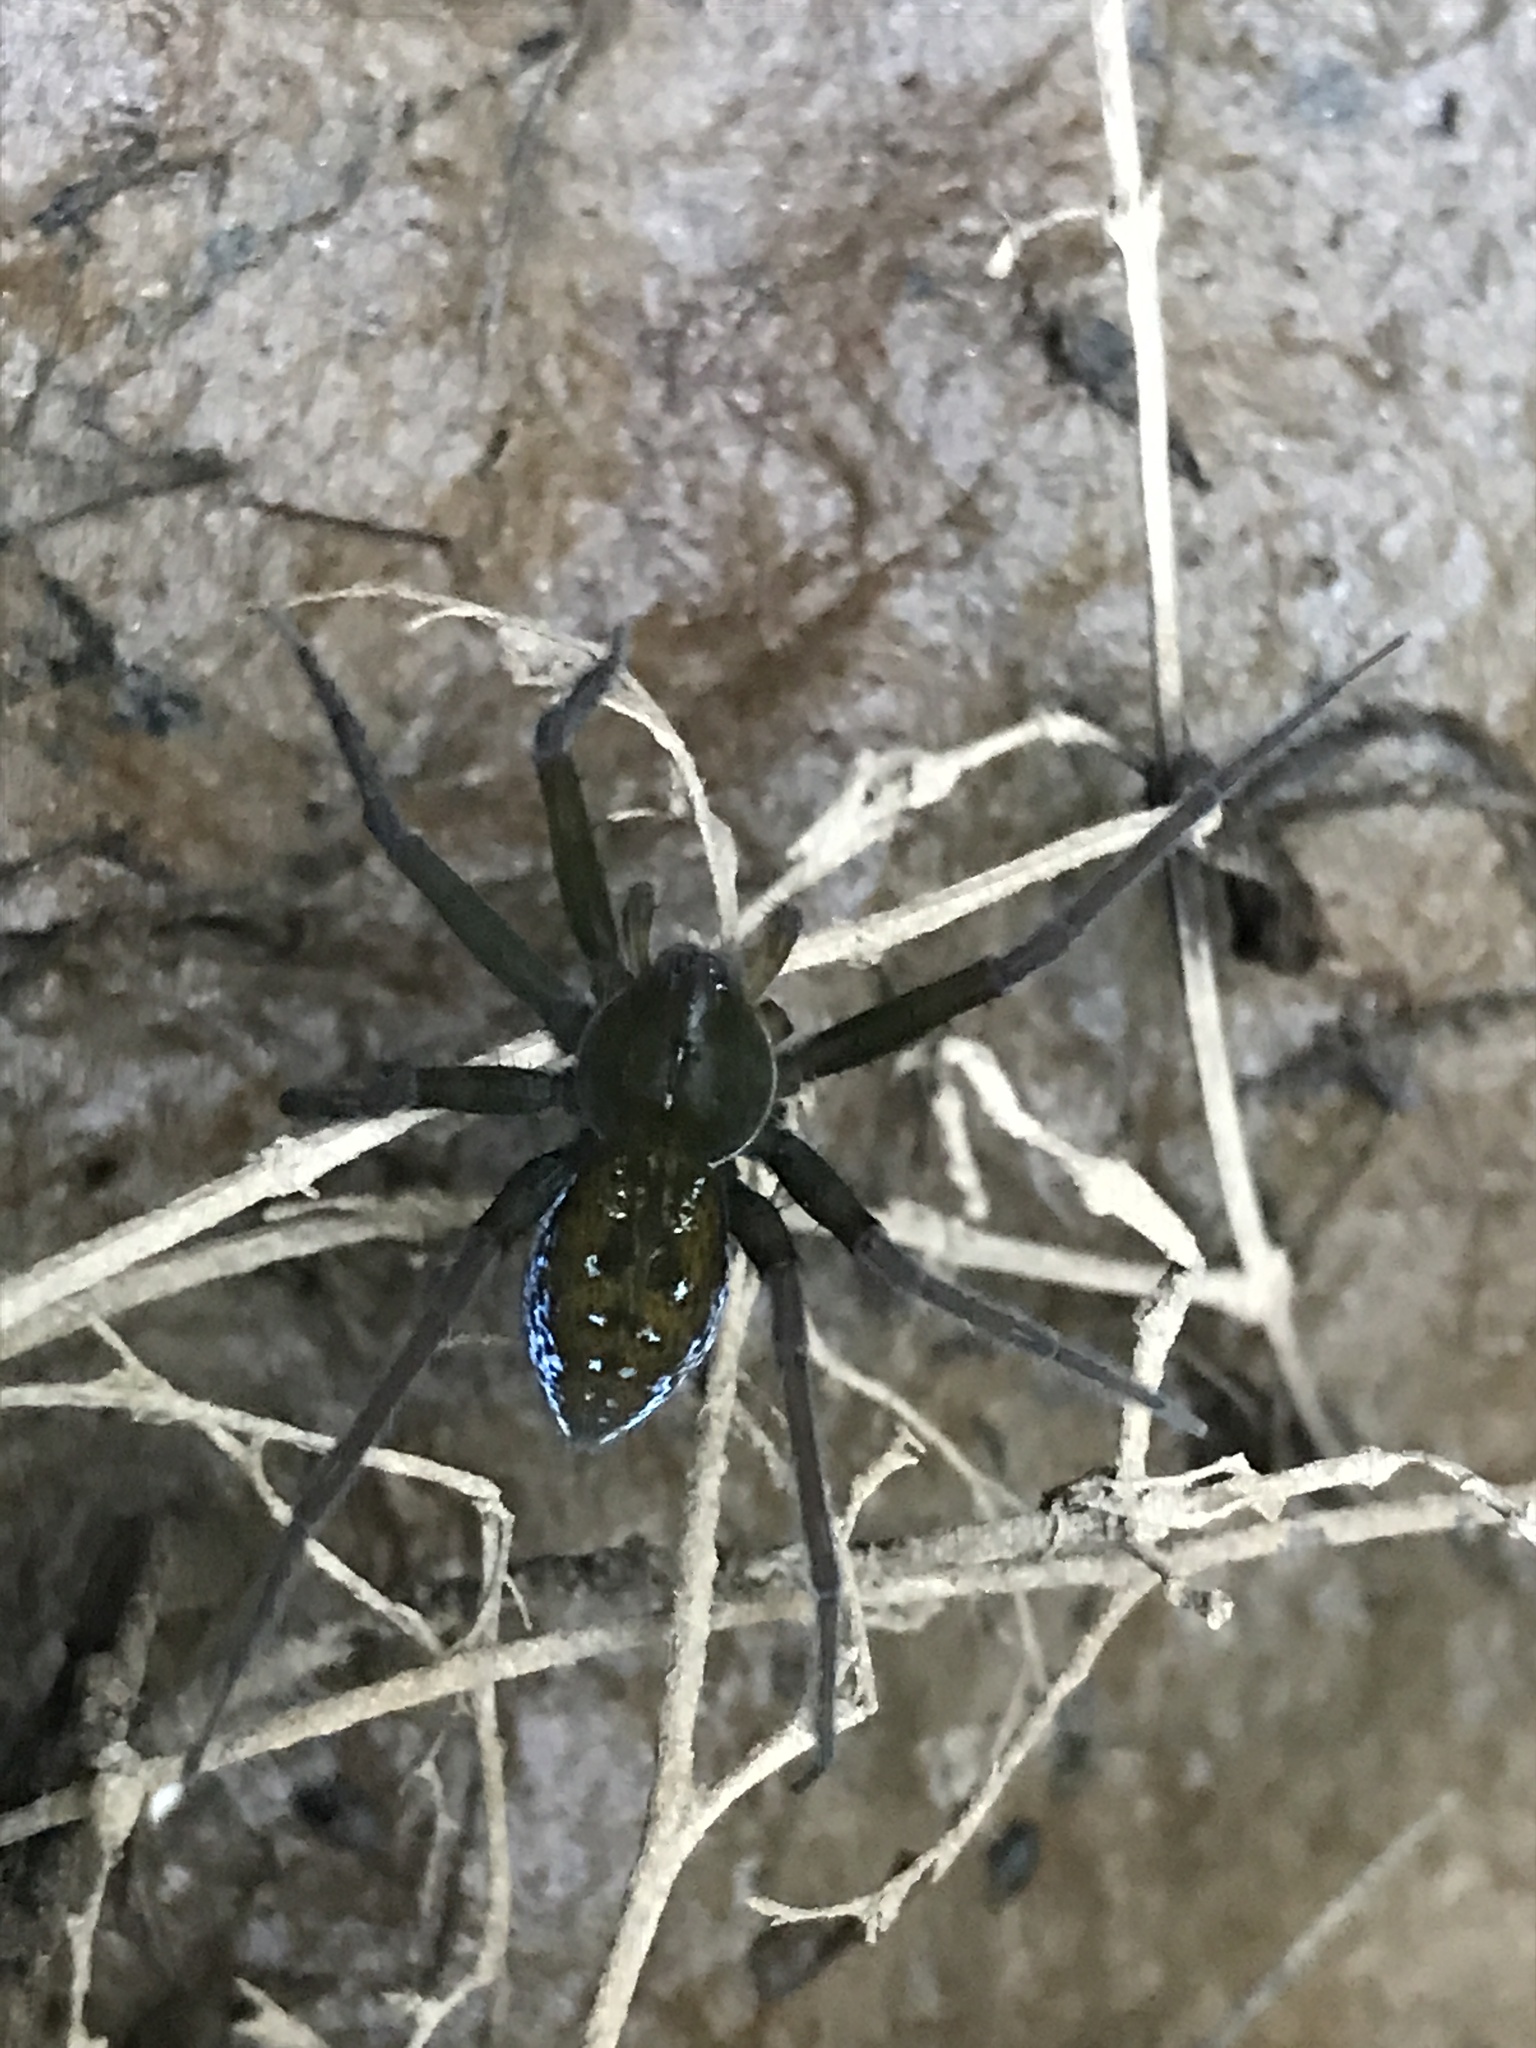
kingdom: Animalia
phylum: Arthropoda
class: Arachnida
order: Araneae
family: Pisauridae
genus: Thaumasia
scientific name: Thaumasia velox
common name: Nursery web spiders
